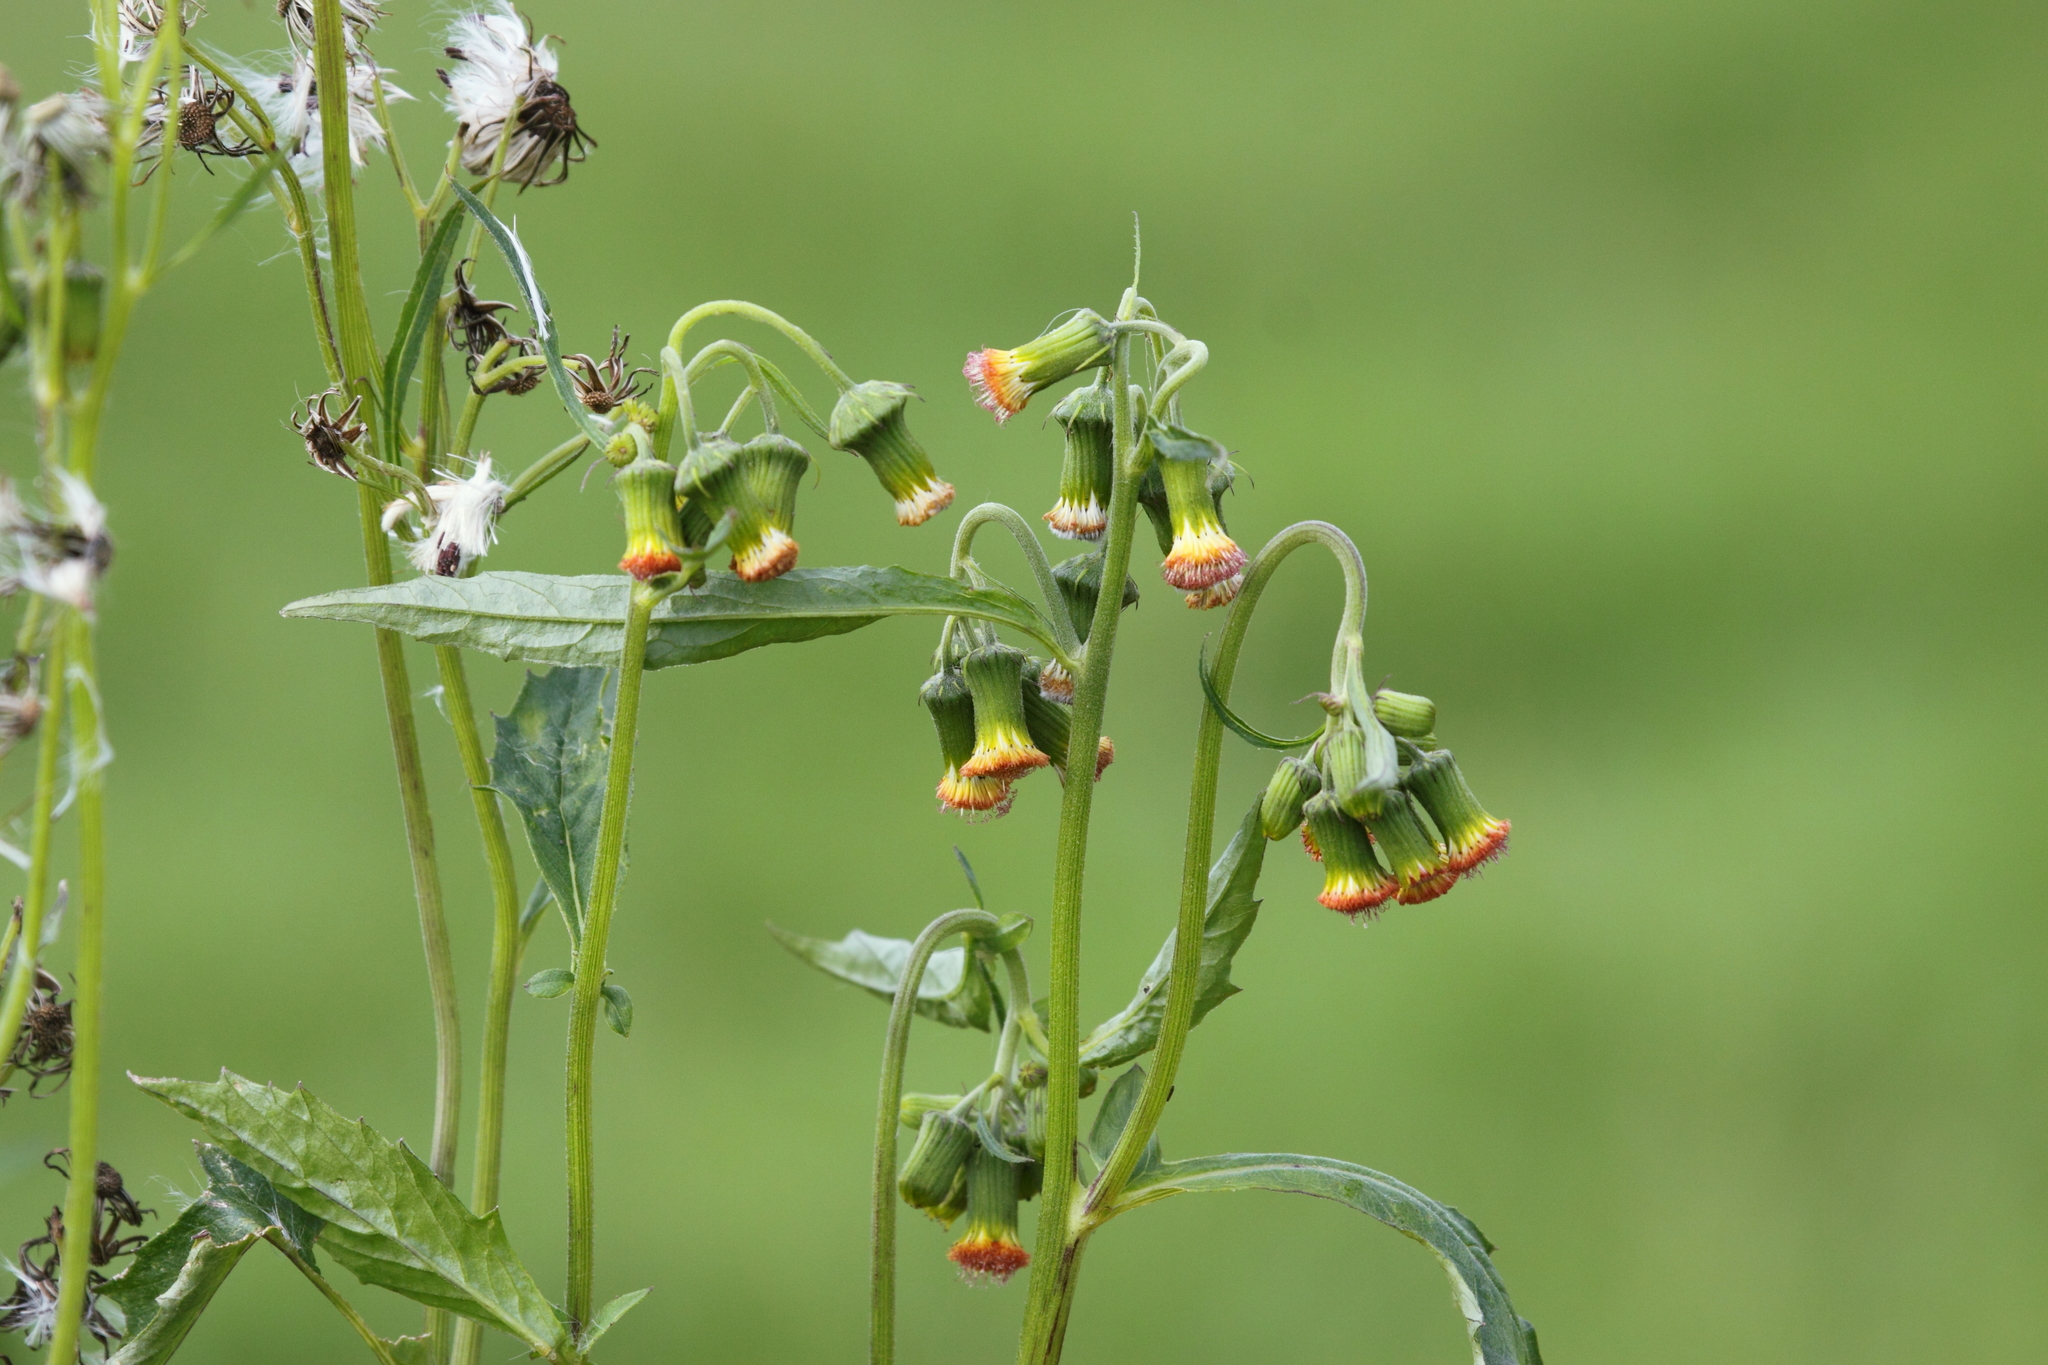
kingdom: Plantae
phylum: Tracheophyta
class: Magnoliopsida
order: Asterales
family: Asteraceae
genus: Crassocephalum
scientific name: Crassocephalum crepidioides
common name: Redflower ragleaf
